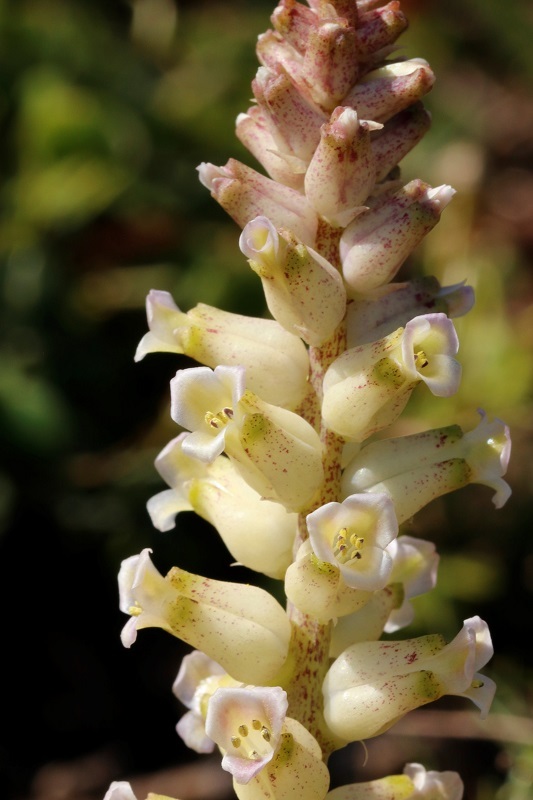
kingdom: Plantae
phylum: Tracheophyta
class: Liliopsida
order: Asparagales
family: Asparagaceae
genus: Lachenalia
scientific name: Lachenalia fistulosa
